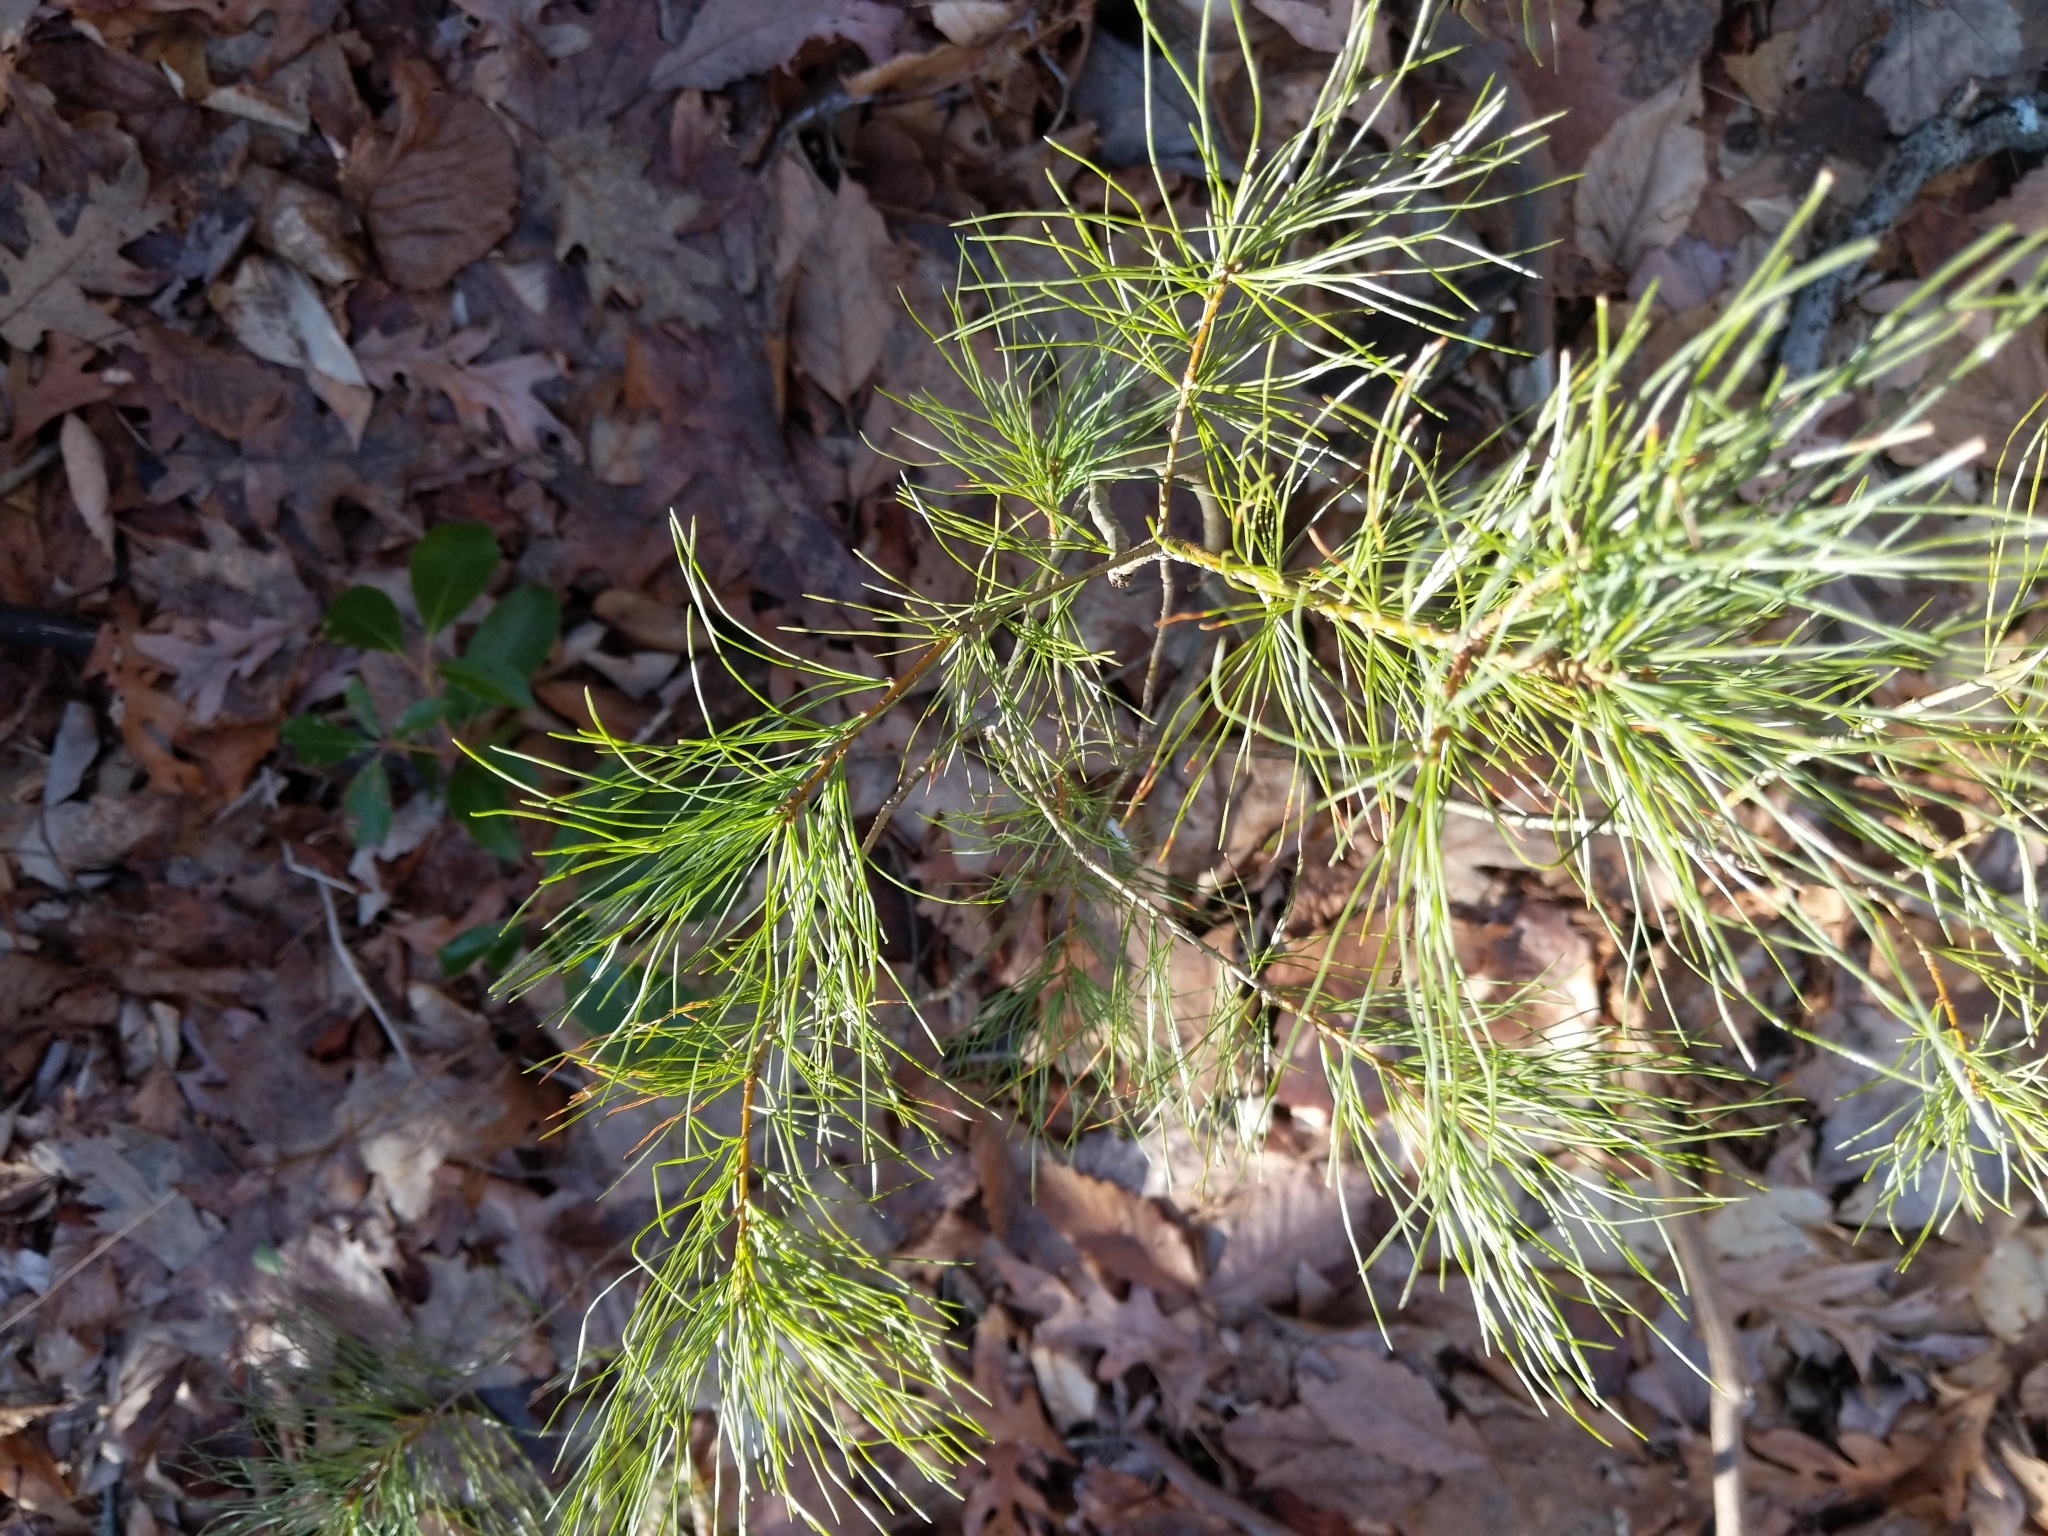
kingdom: Plantae
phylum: Tracheophyta
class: Pinopsida
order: Pinales
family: Pinaceae
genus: Pinus
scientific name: Pinus strobus
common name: Weymouth pine
